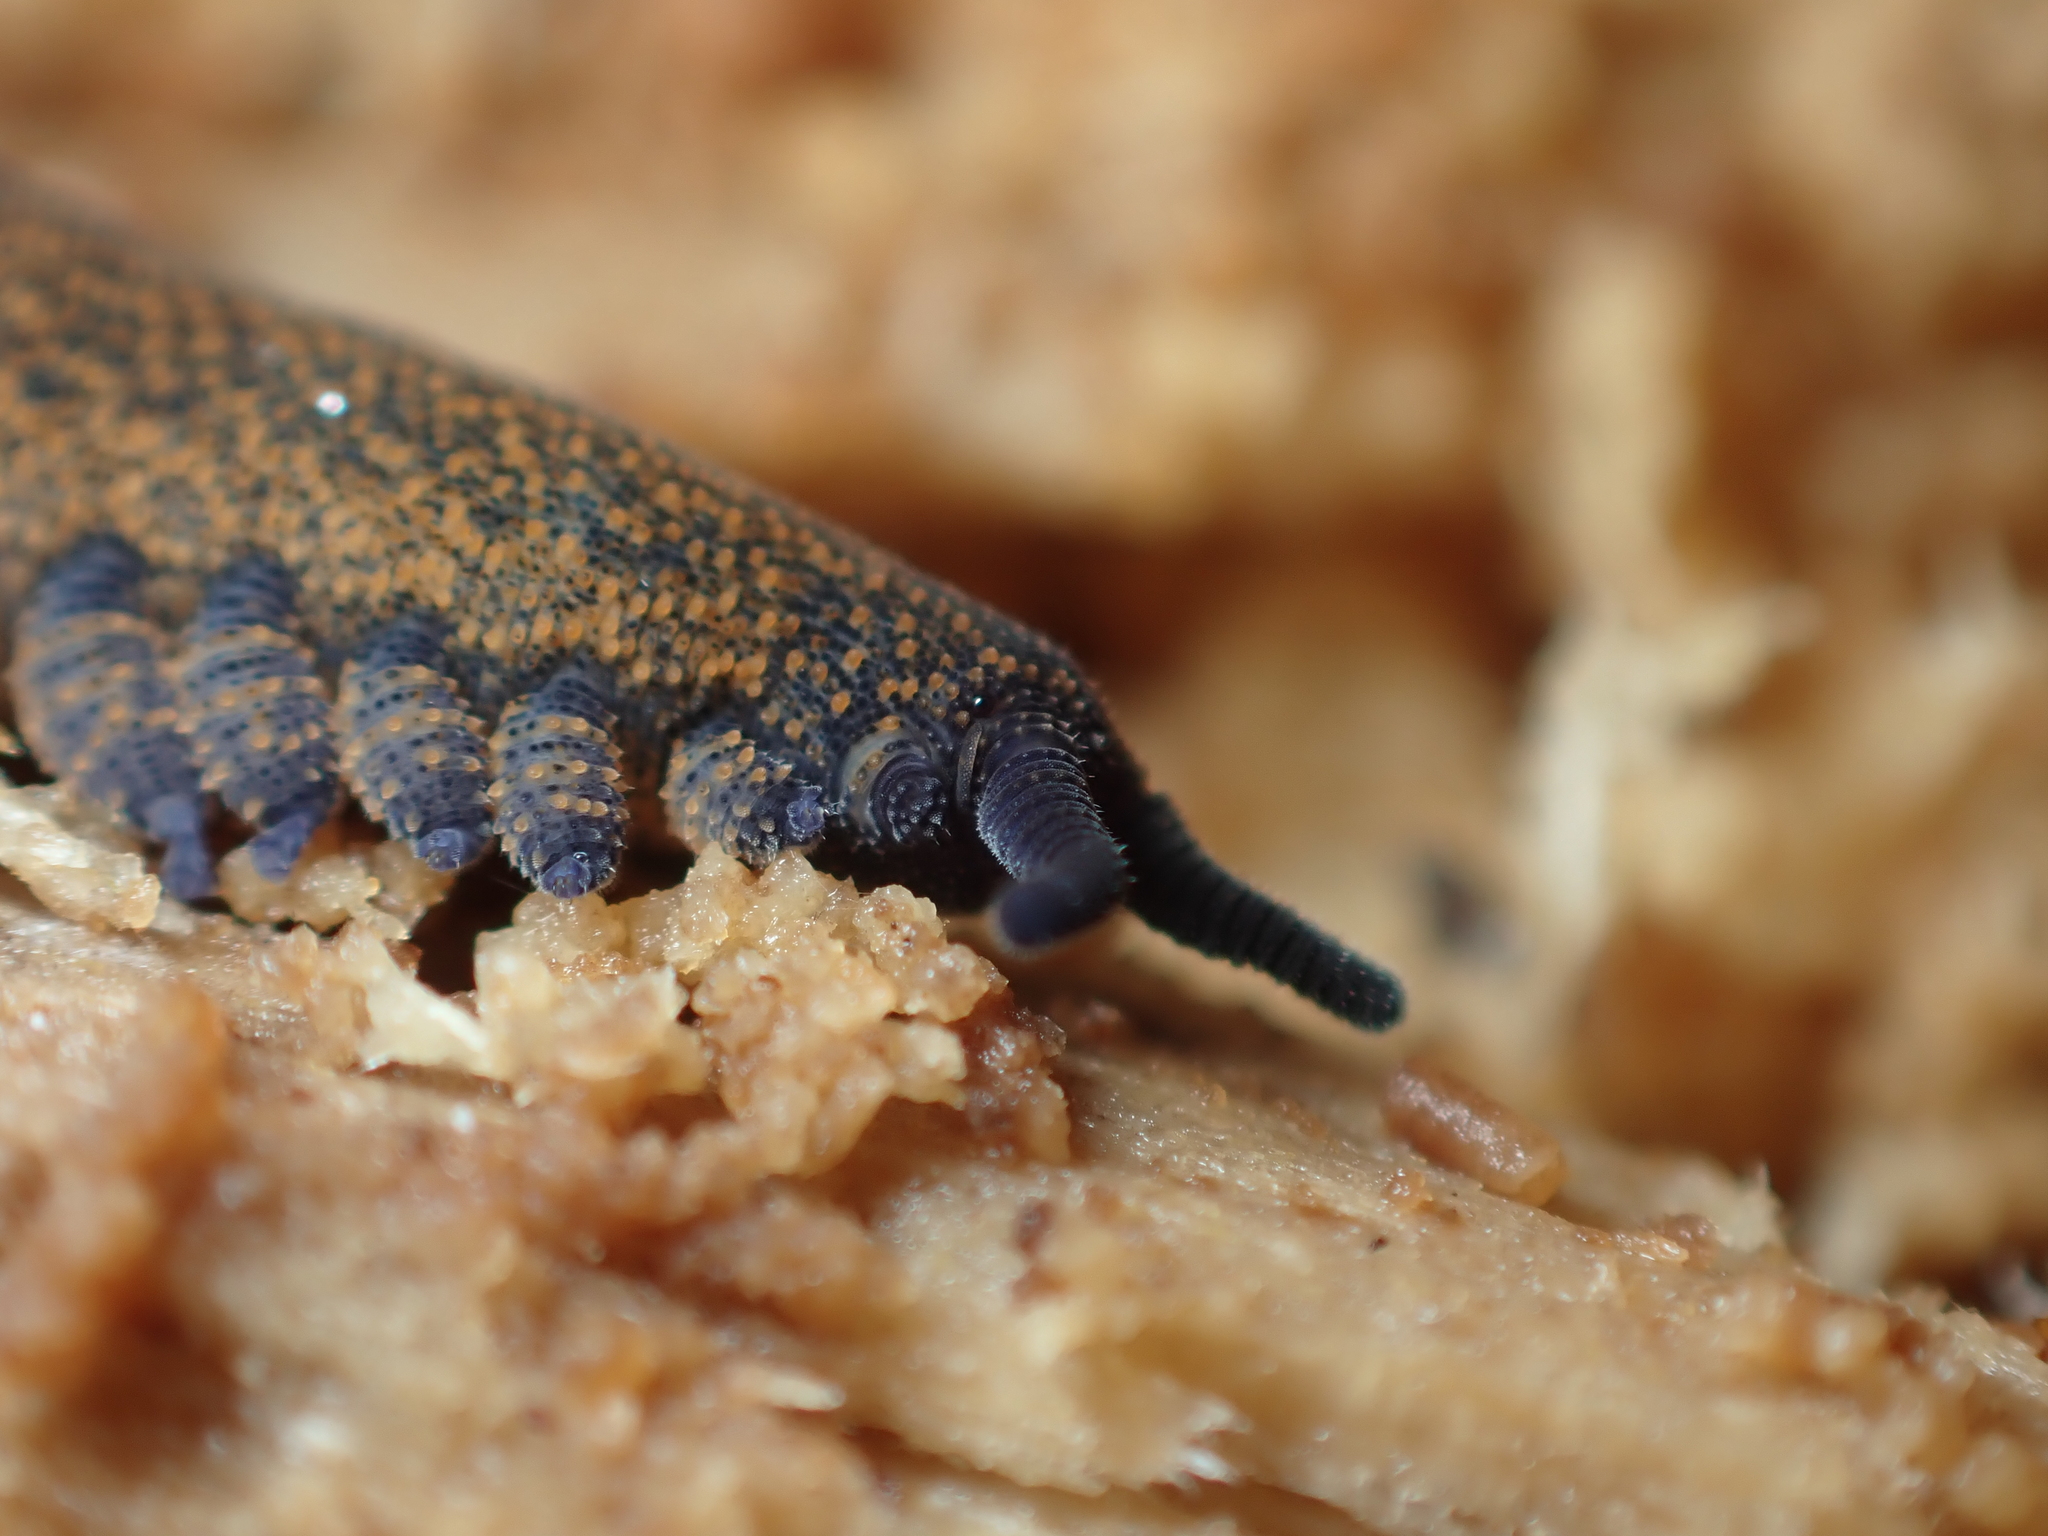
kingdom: Animalia
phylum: Onychophora
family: Peripatopsidae
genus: Peripatoides
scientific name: Peripatoides novaezealandiae
